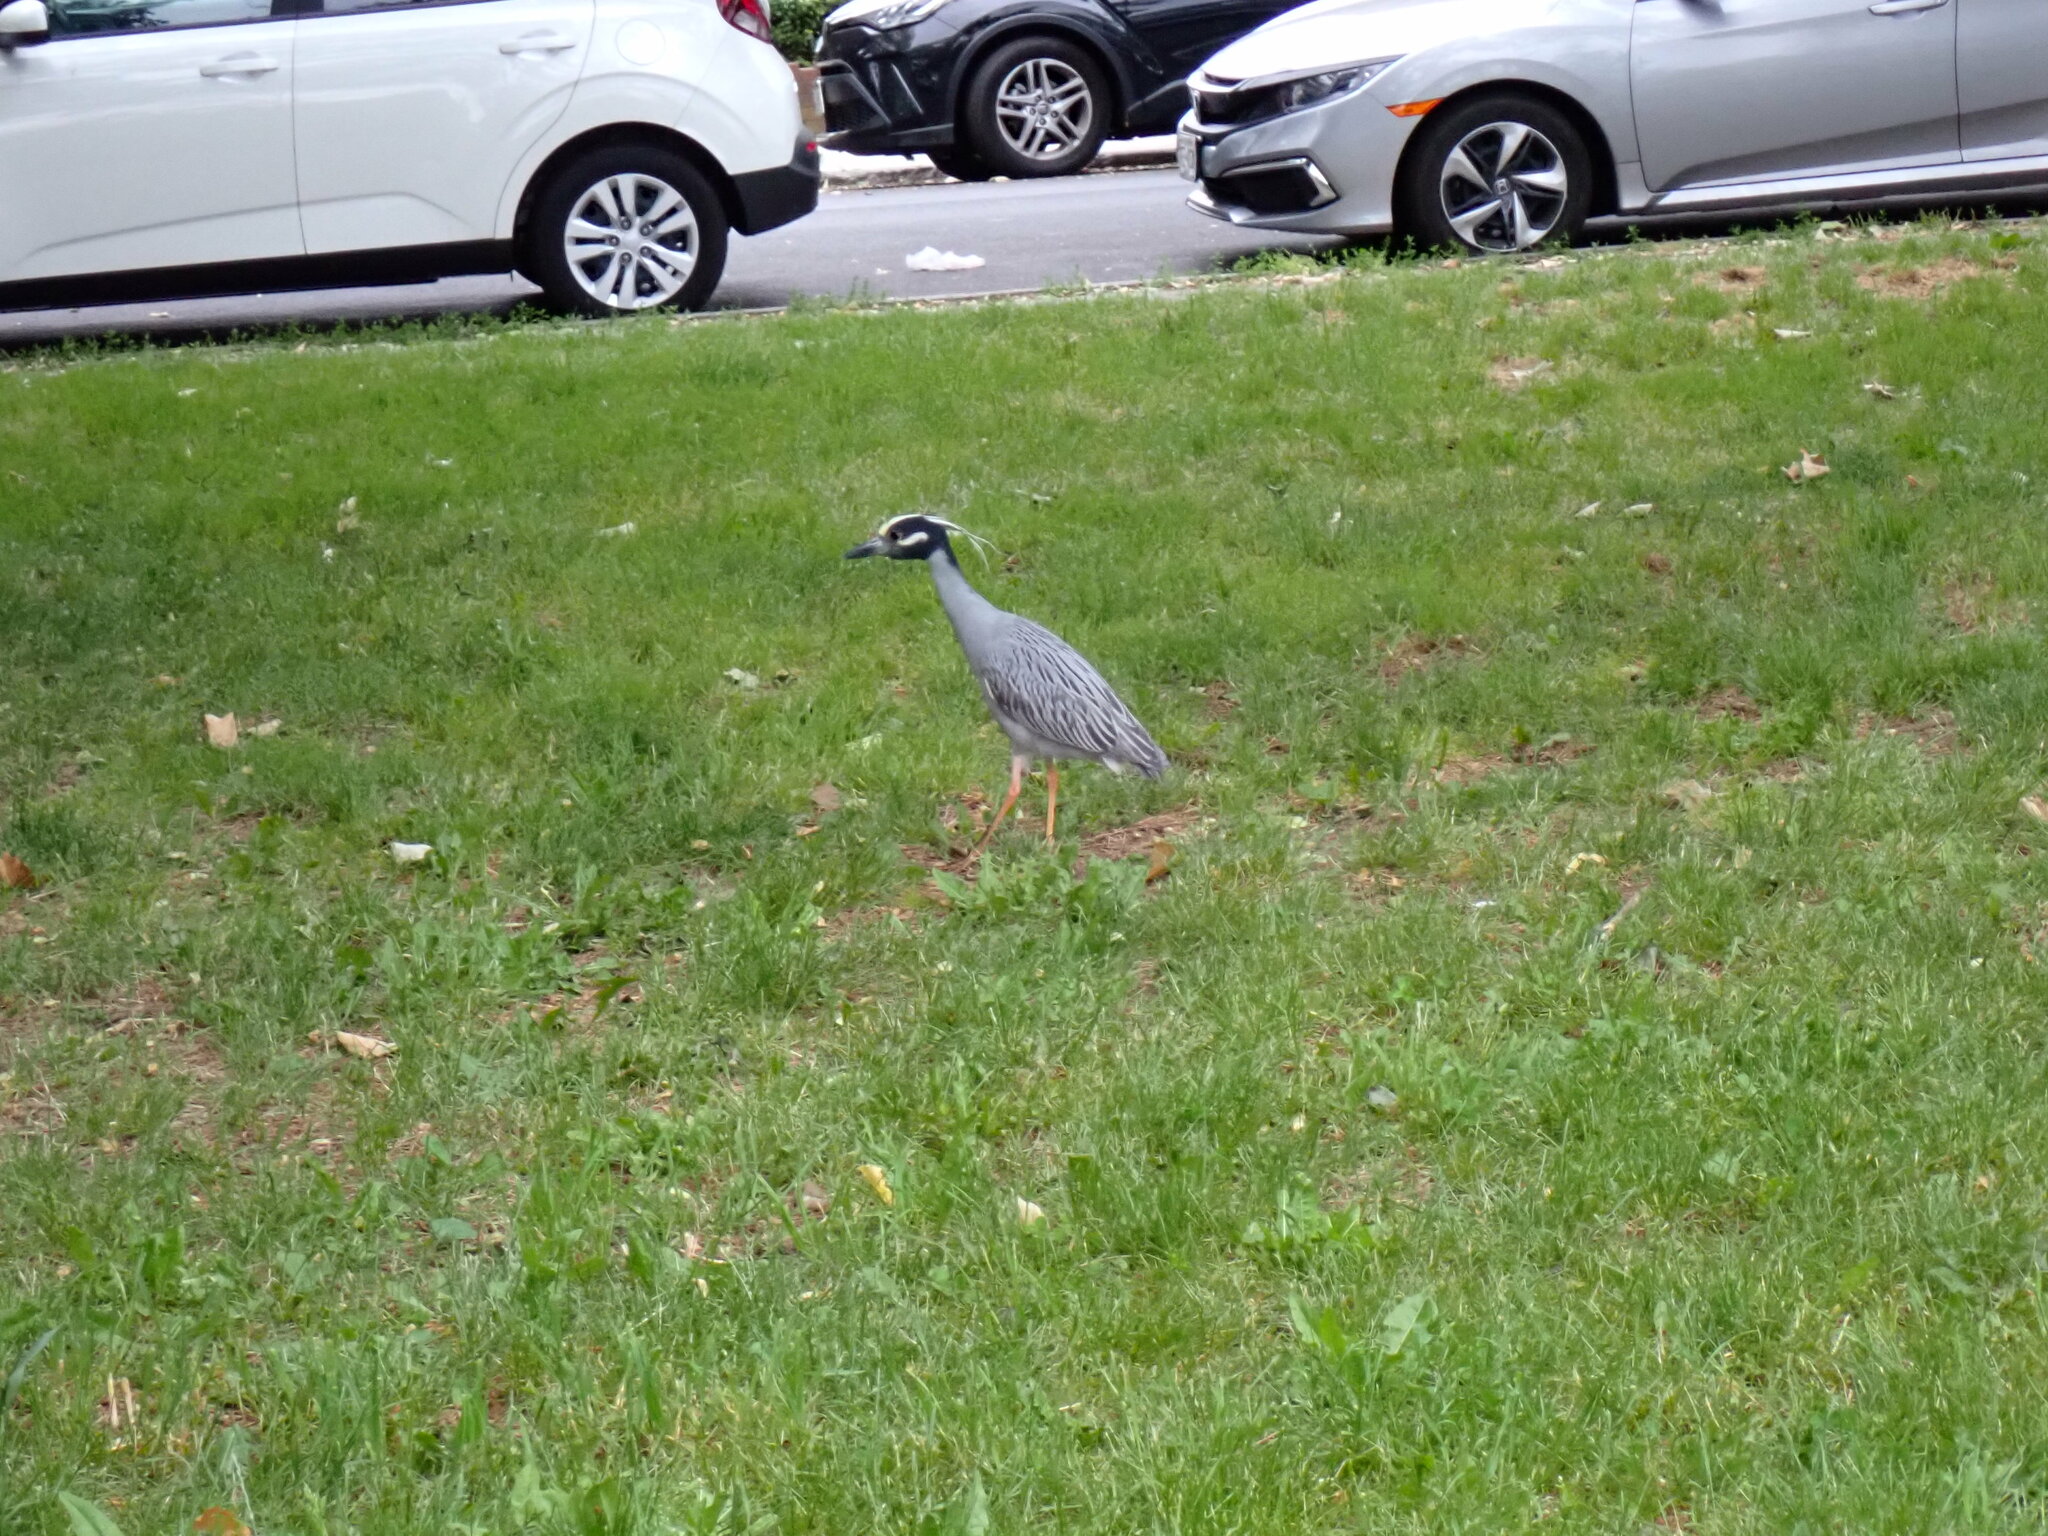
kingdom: Animalia
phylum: Chordata
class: Aves
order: Pelecaniformes
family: Ardeidae
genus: Nyctanassa
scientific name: Nyctanassa violacea
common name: Yellow-crowned night heron
